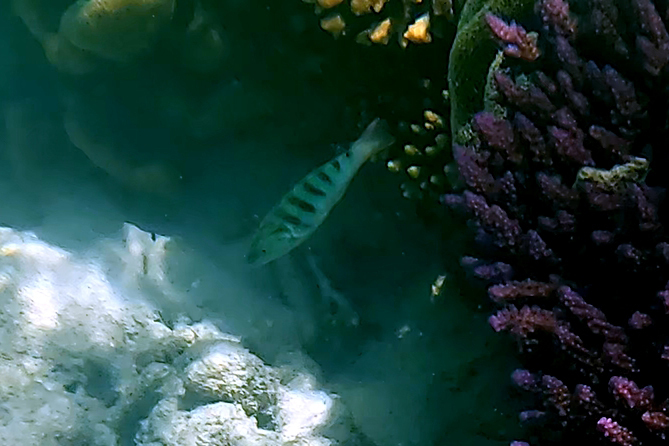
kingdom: Animalia
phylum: Chordata
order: Perciformes
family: Labridae
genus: Thalassoma
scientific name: Thalassoma hardwicke
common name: Sixbar wrasse
